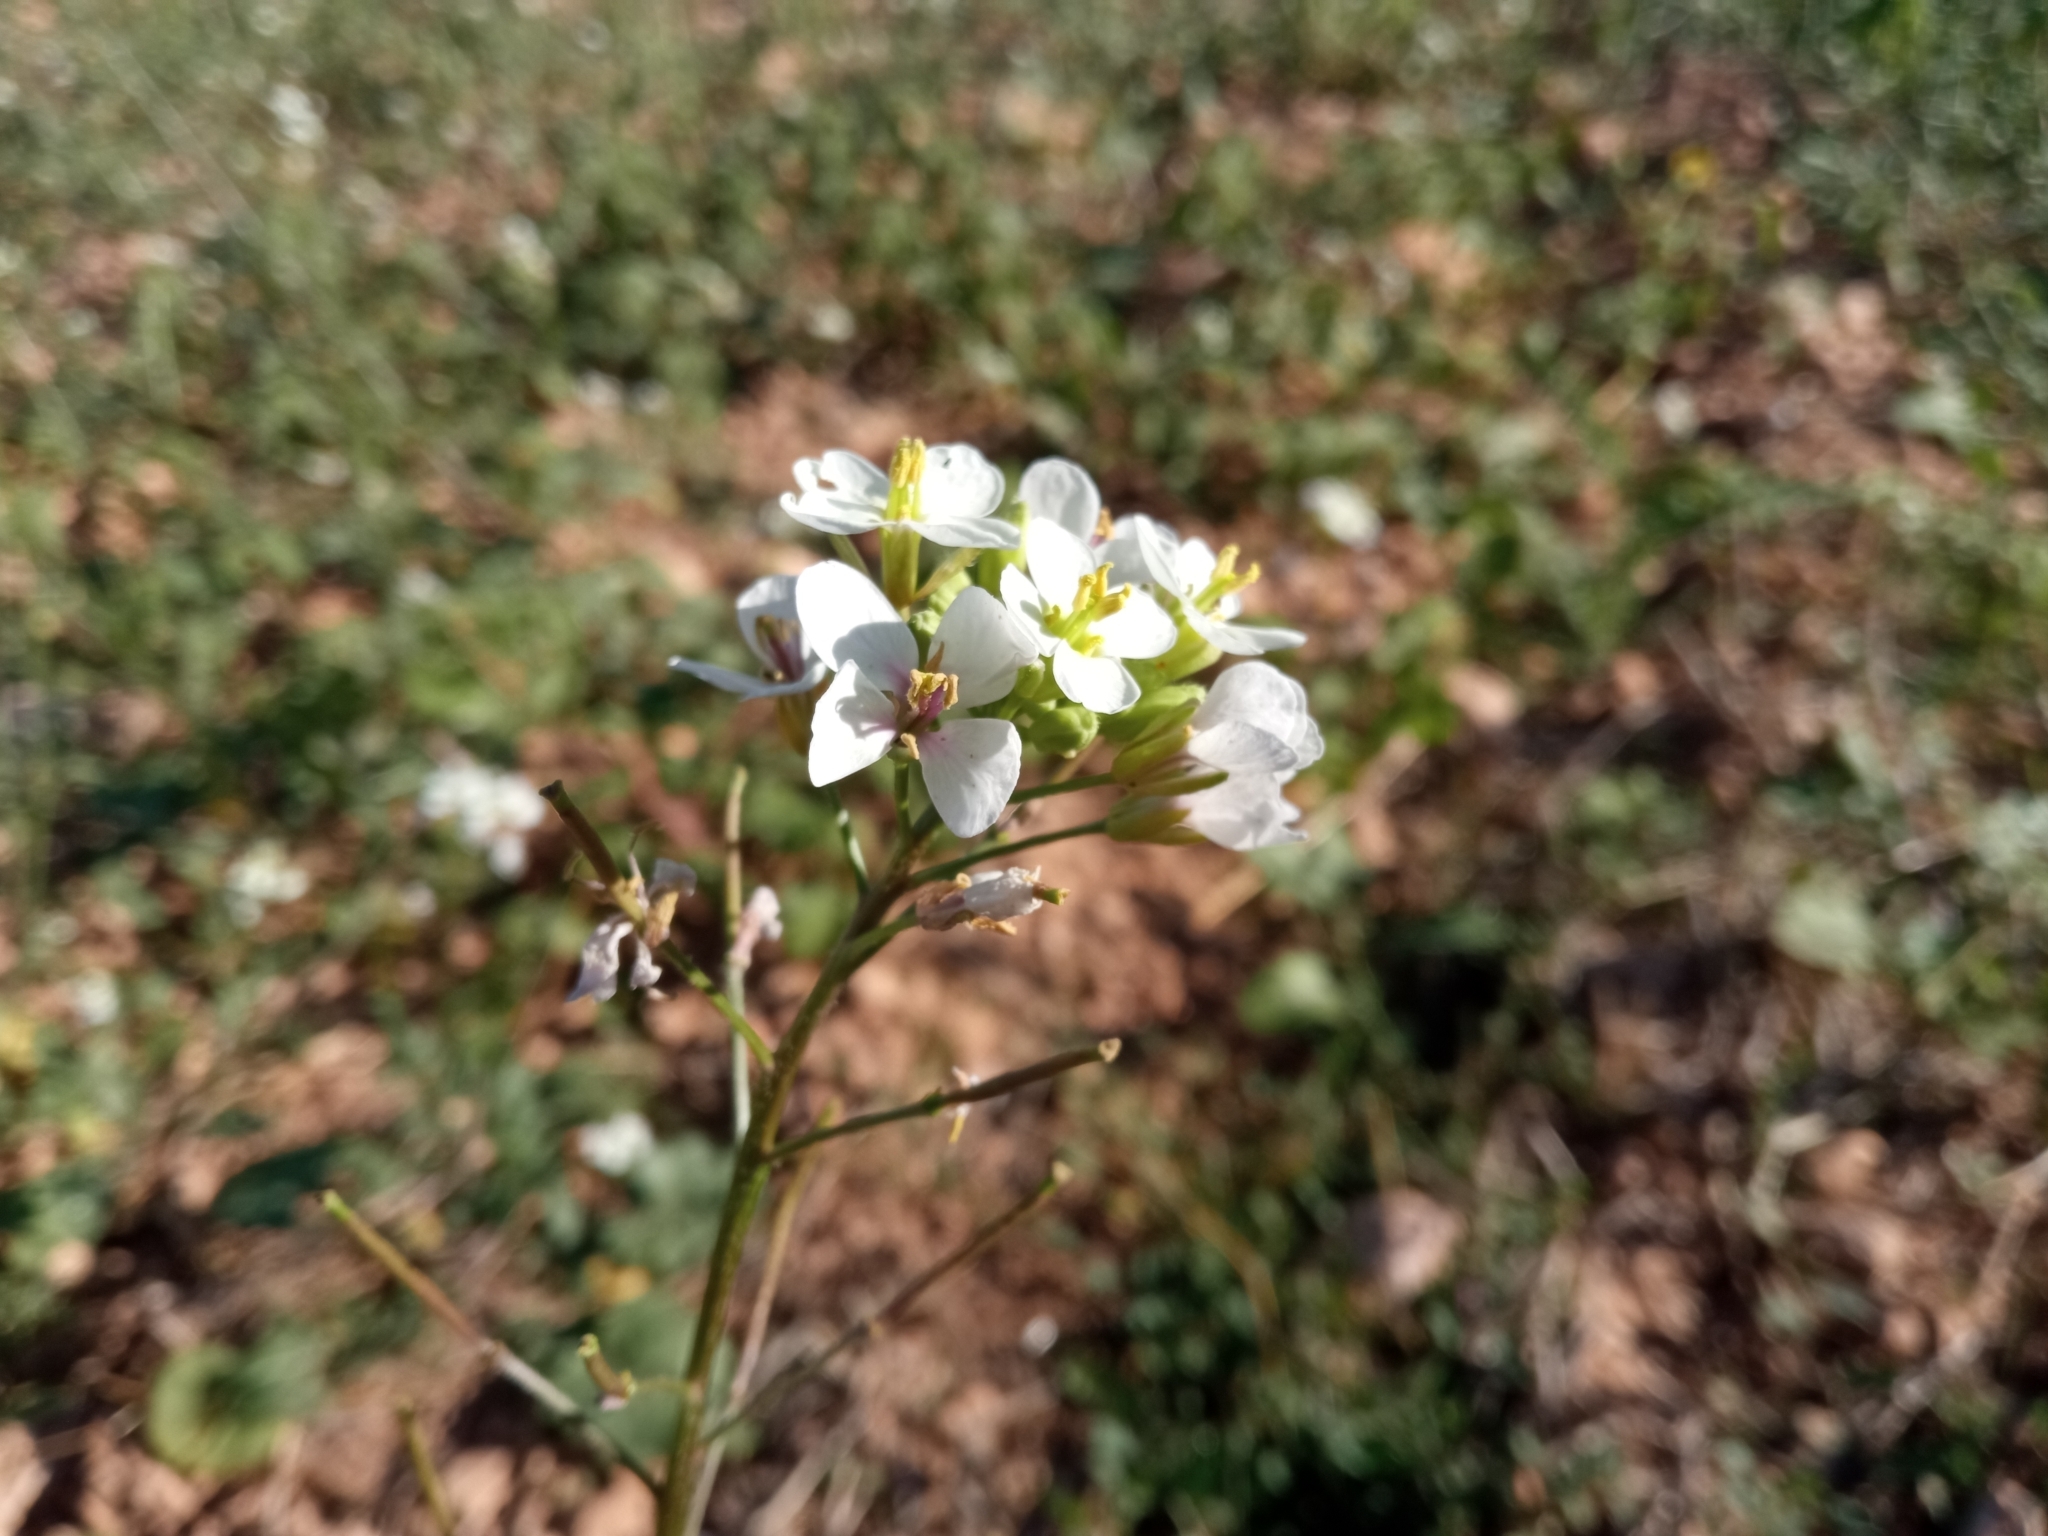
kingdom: Plantae
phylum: Tracheophyta
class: Magnoliopsida
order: Brassicales
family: Brassicaceae
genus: Diplotaxis
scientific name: Diplotaxis erucoides
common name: White rocket
